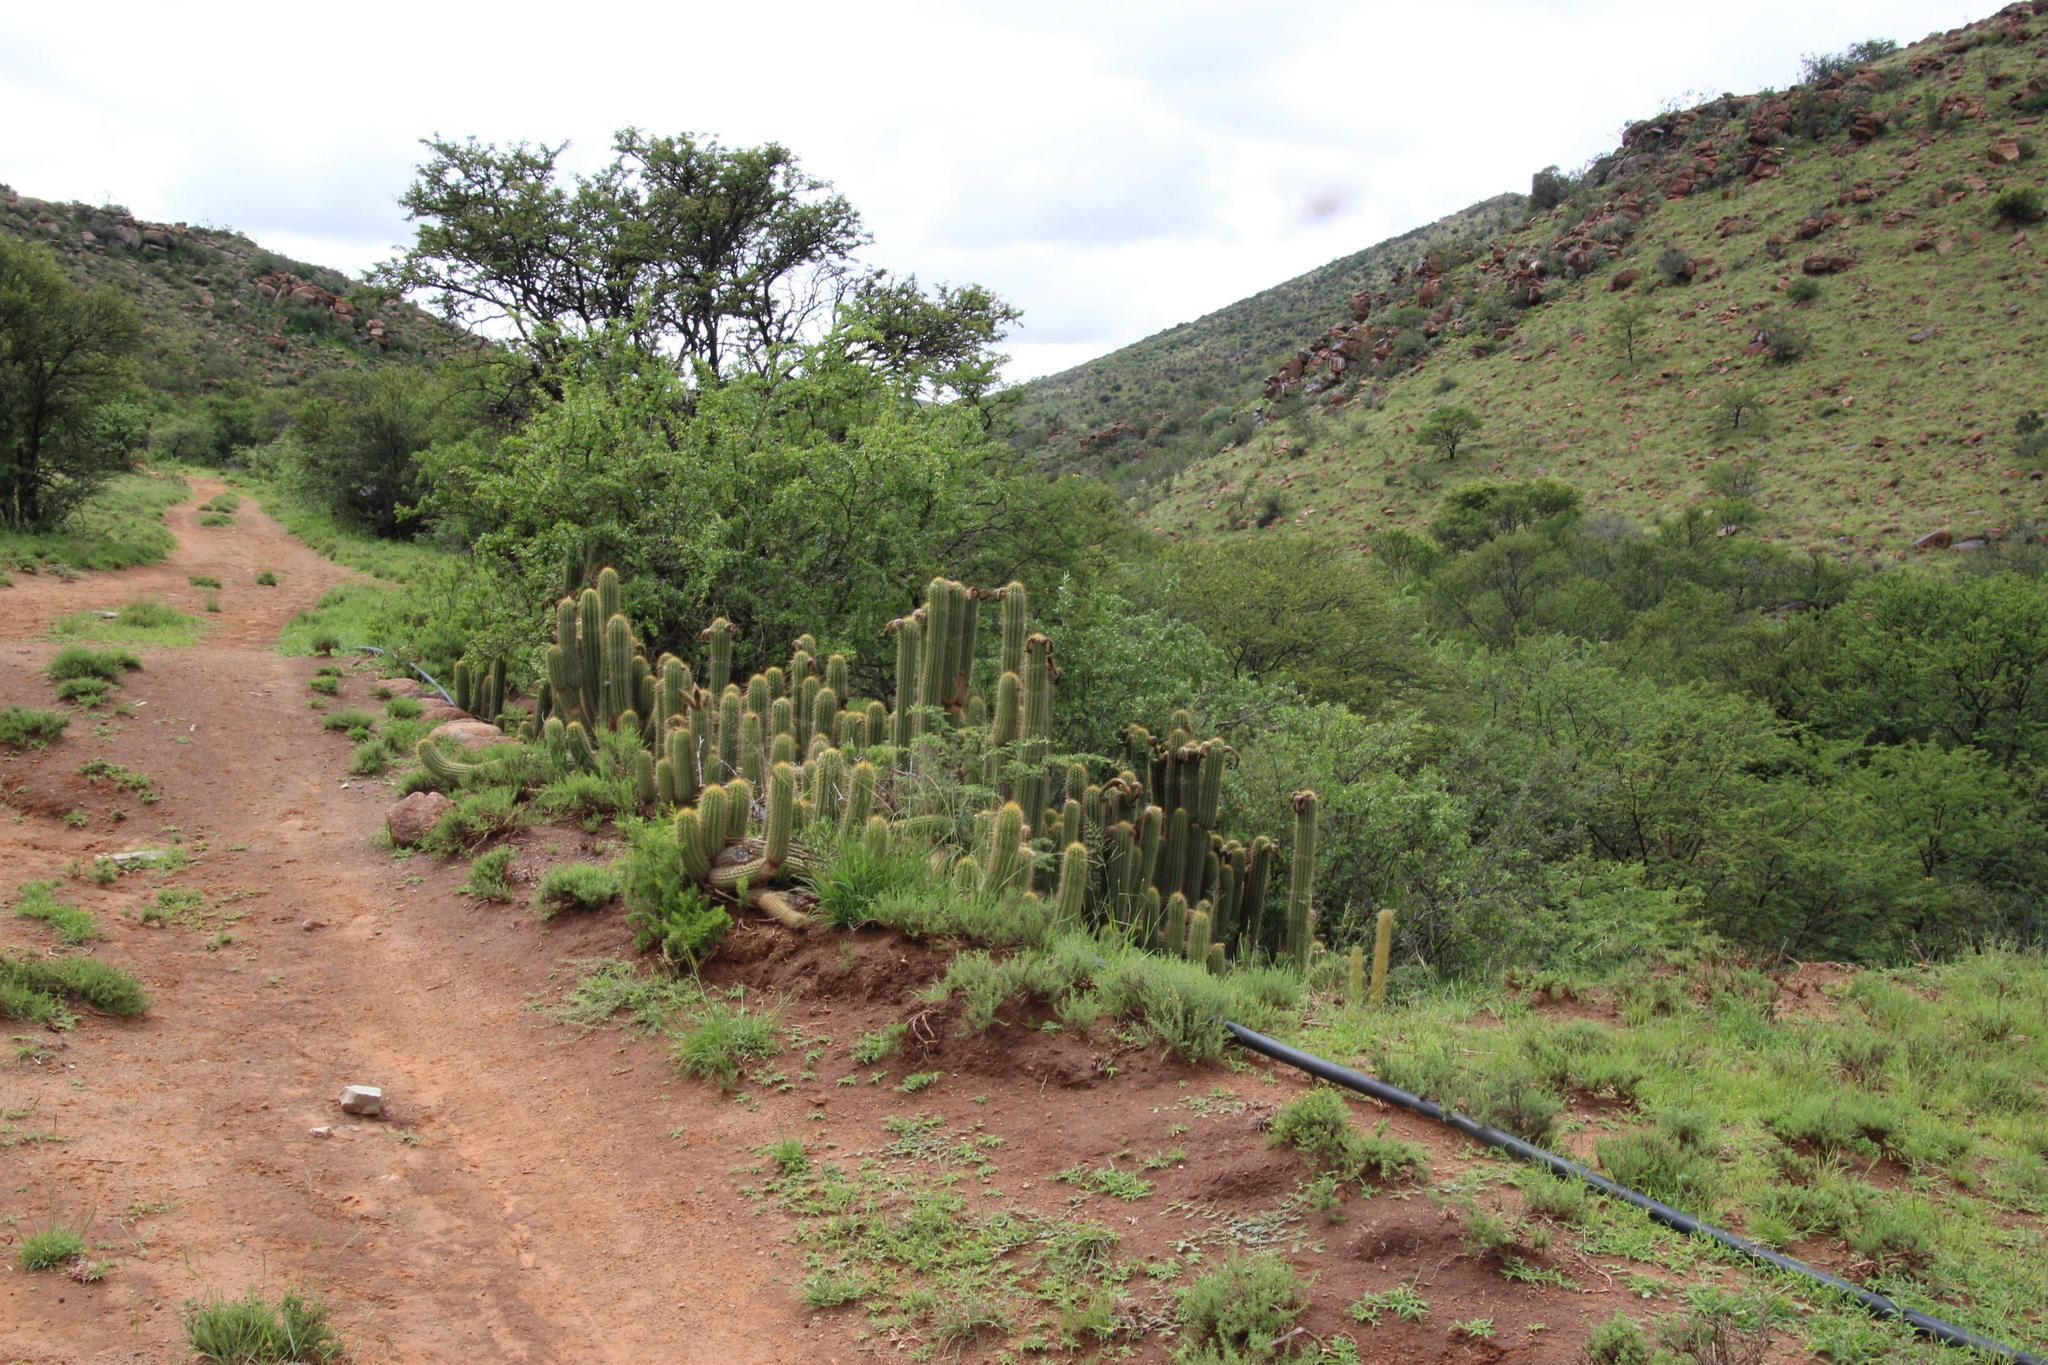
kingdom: Plantae
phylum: Tracheophyta
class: Magnoliopsida
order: Caryophyllales
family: Cactaceae
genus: Soehrensia
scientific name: Soehrensia spachiana
